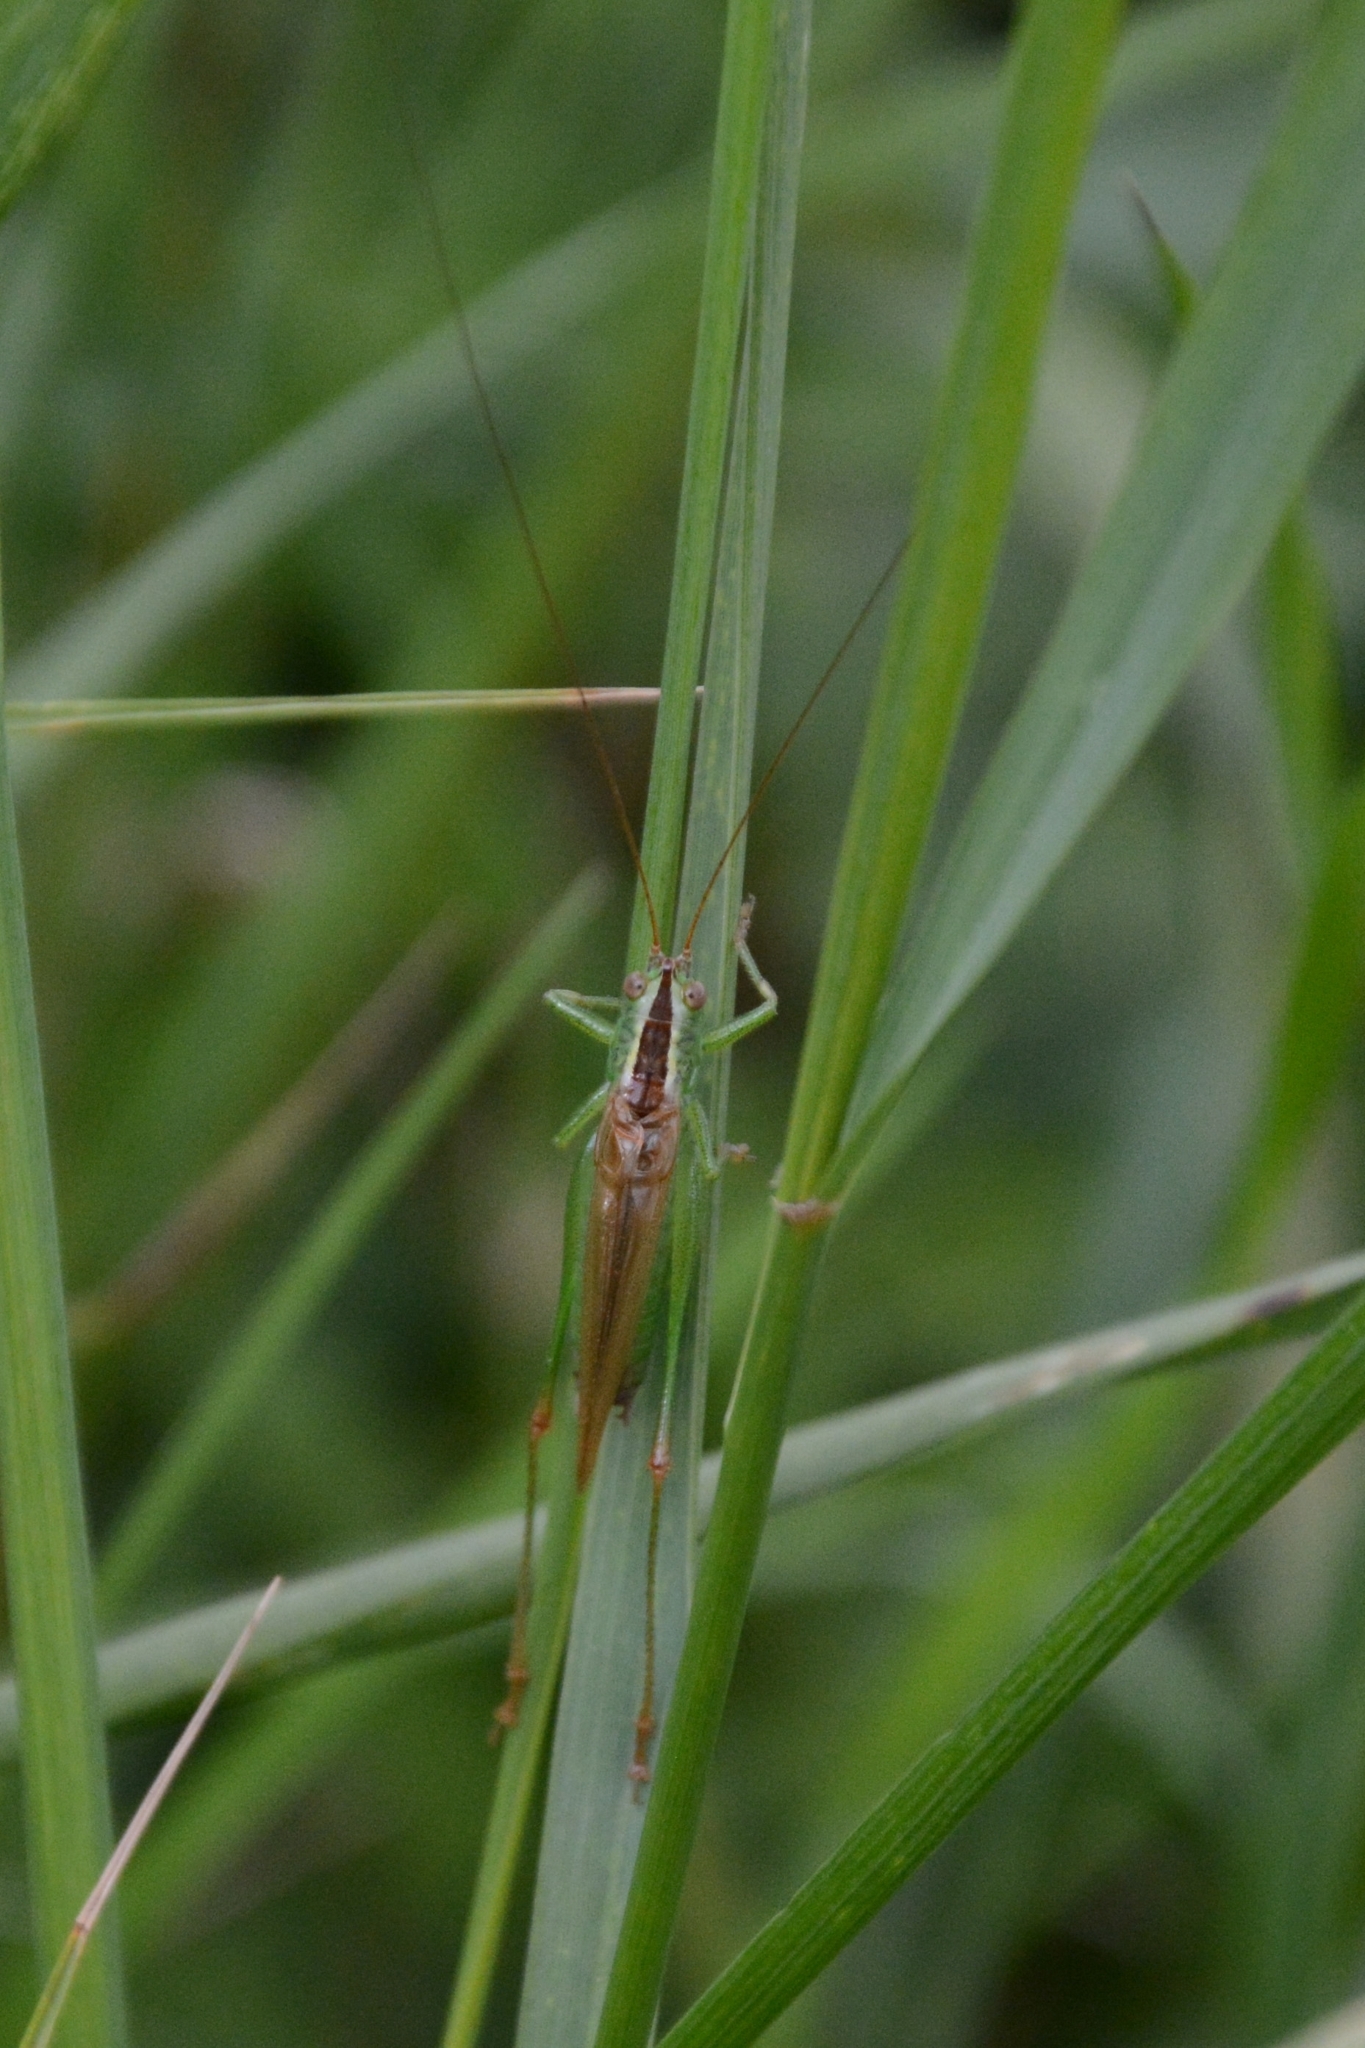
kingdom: Animalia
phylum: Arthropoda
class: Insecta
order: Orthoptera
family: Tettigoniidae
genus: Conocephalus
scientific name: Conocephalus fuscus
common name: Long-winged conehead
